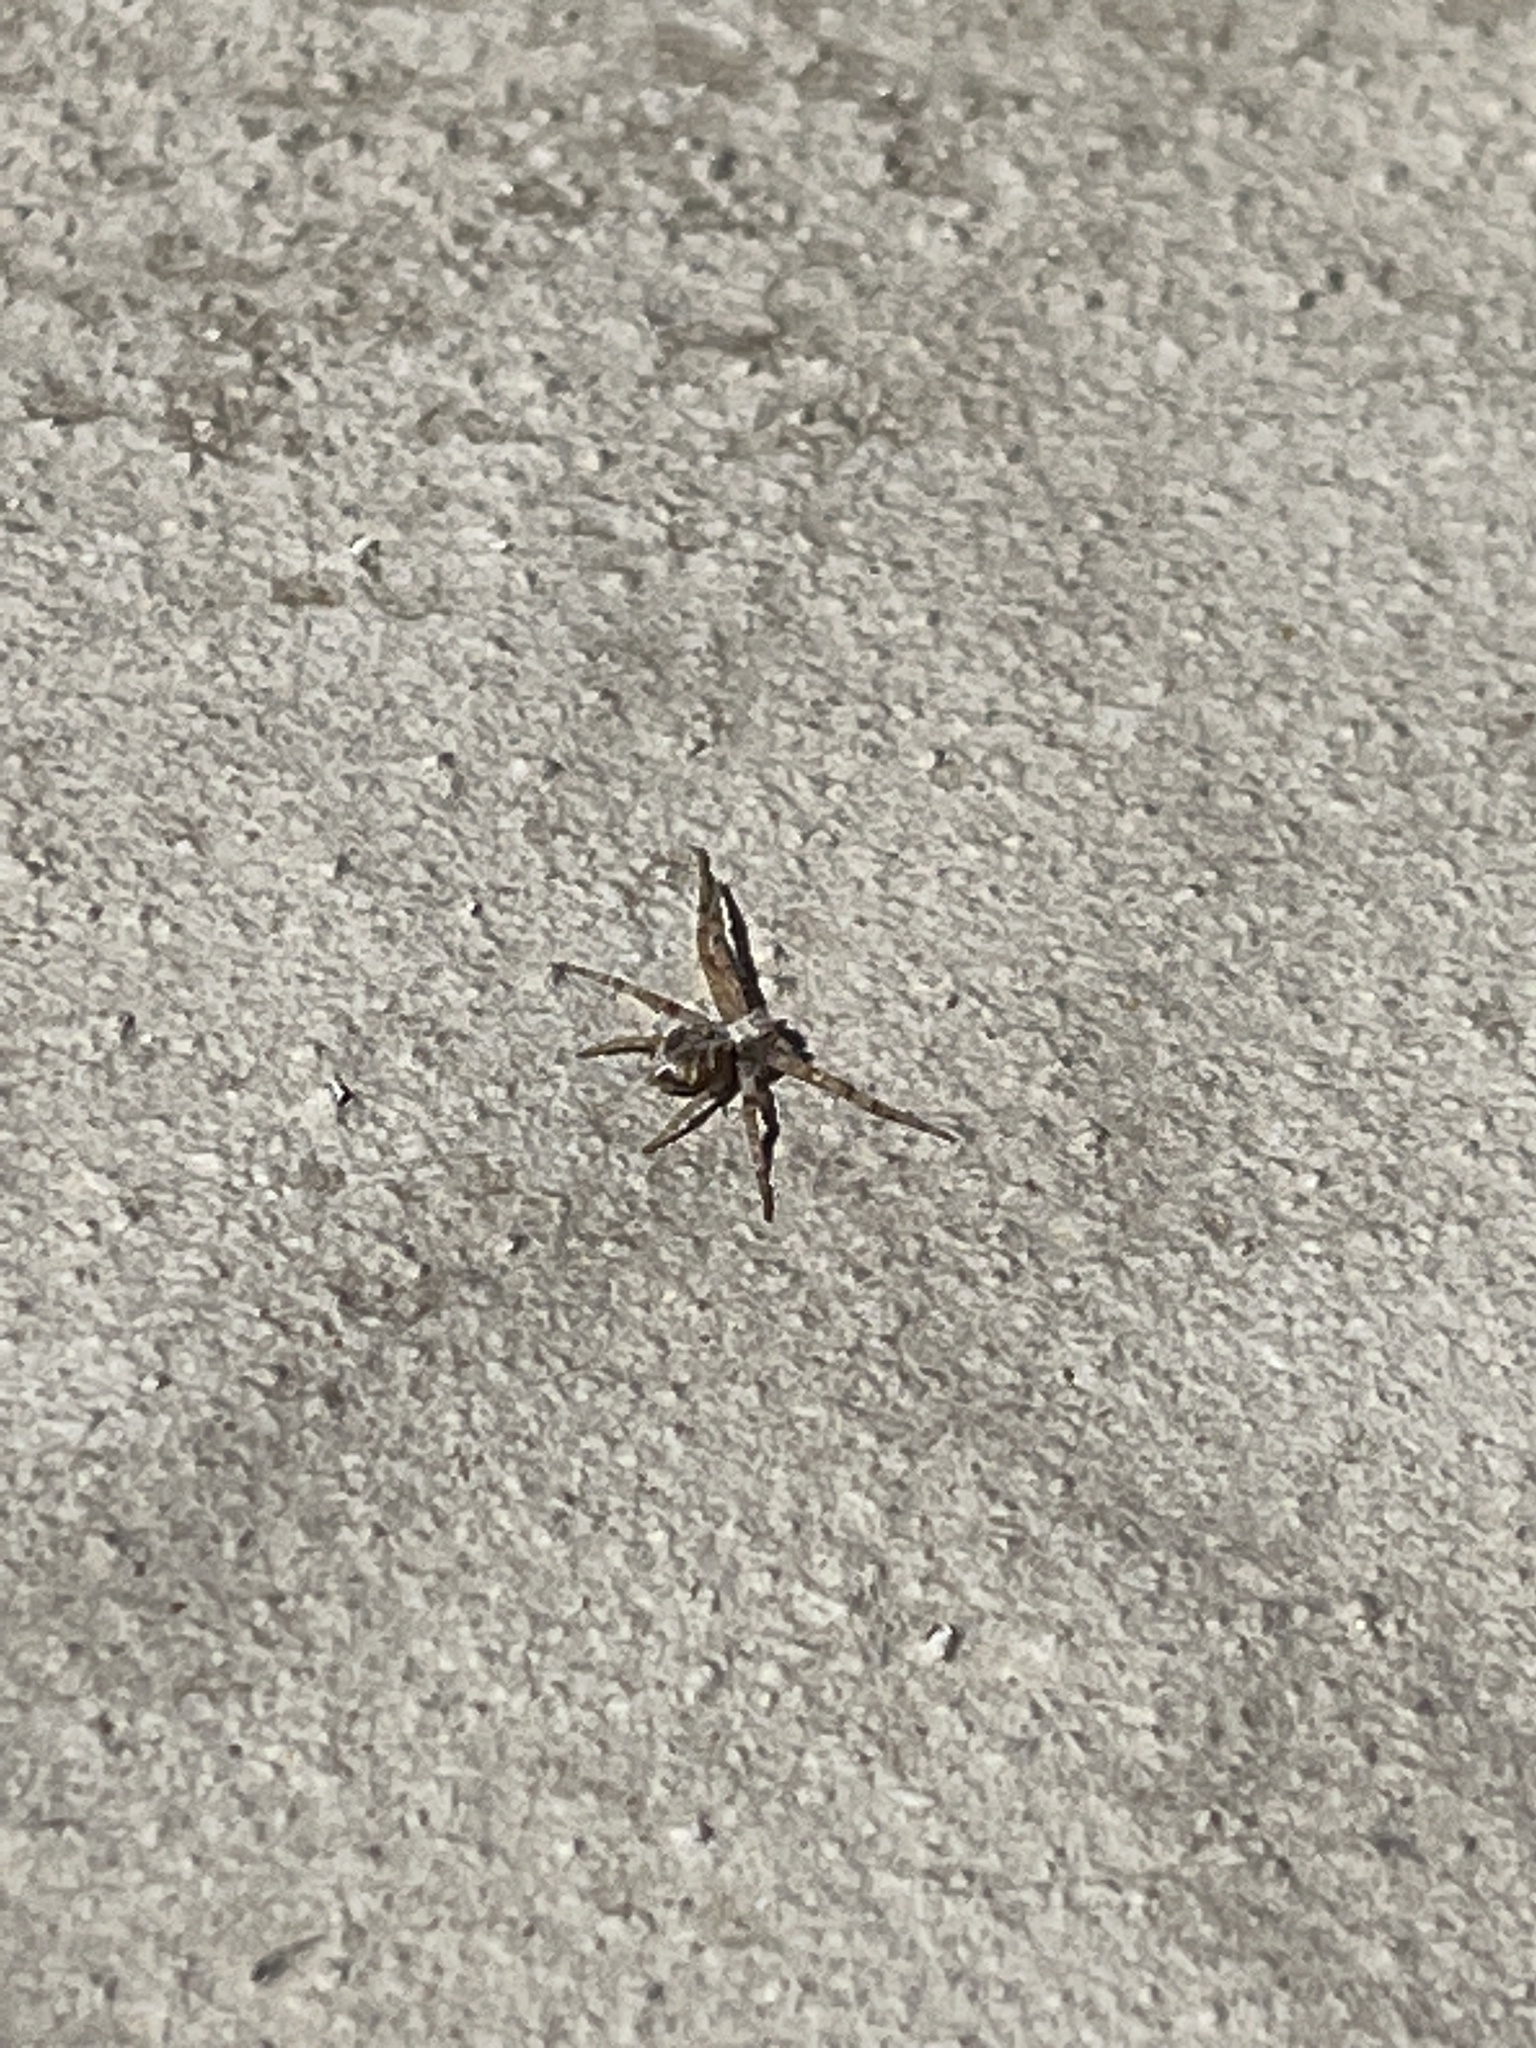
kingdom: Animalia
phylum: Arthropoda
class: Arachnida
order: Araneae
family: Philodromidae
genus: Philodromus
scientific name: Philodromus
